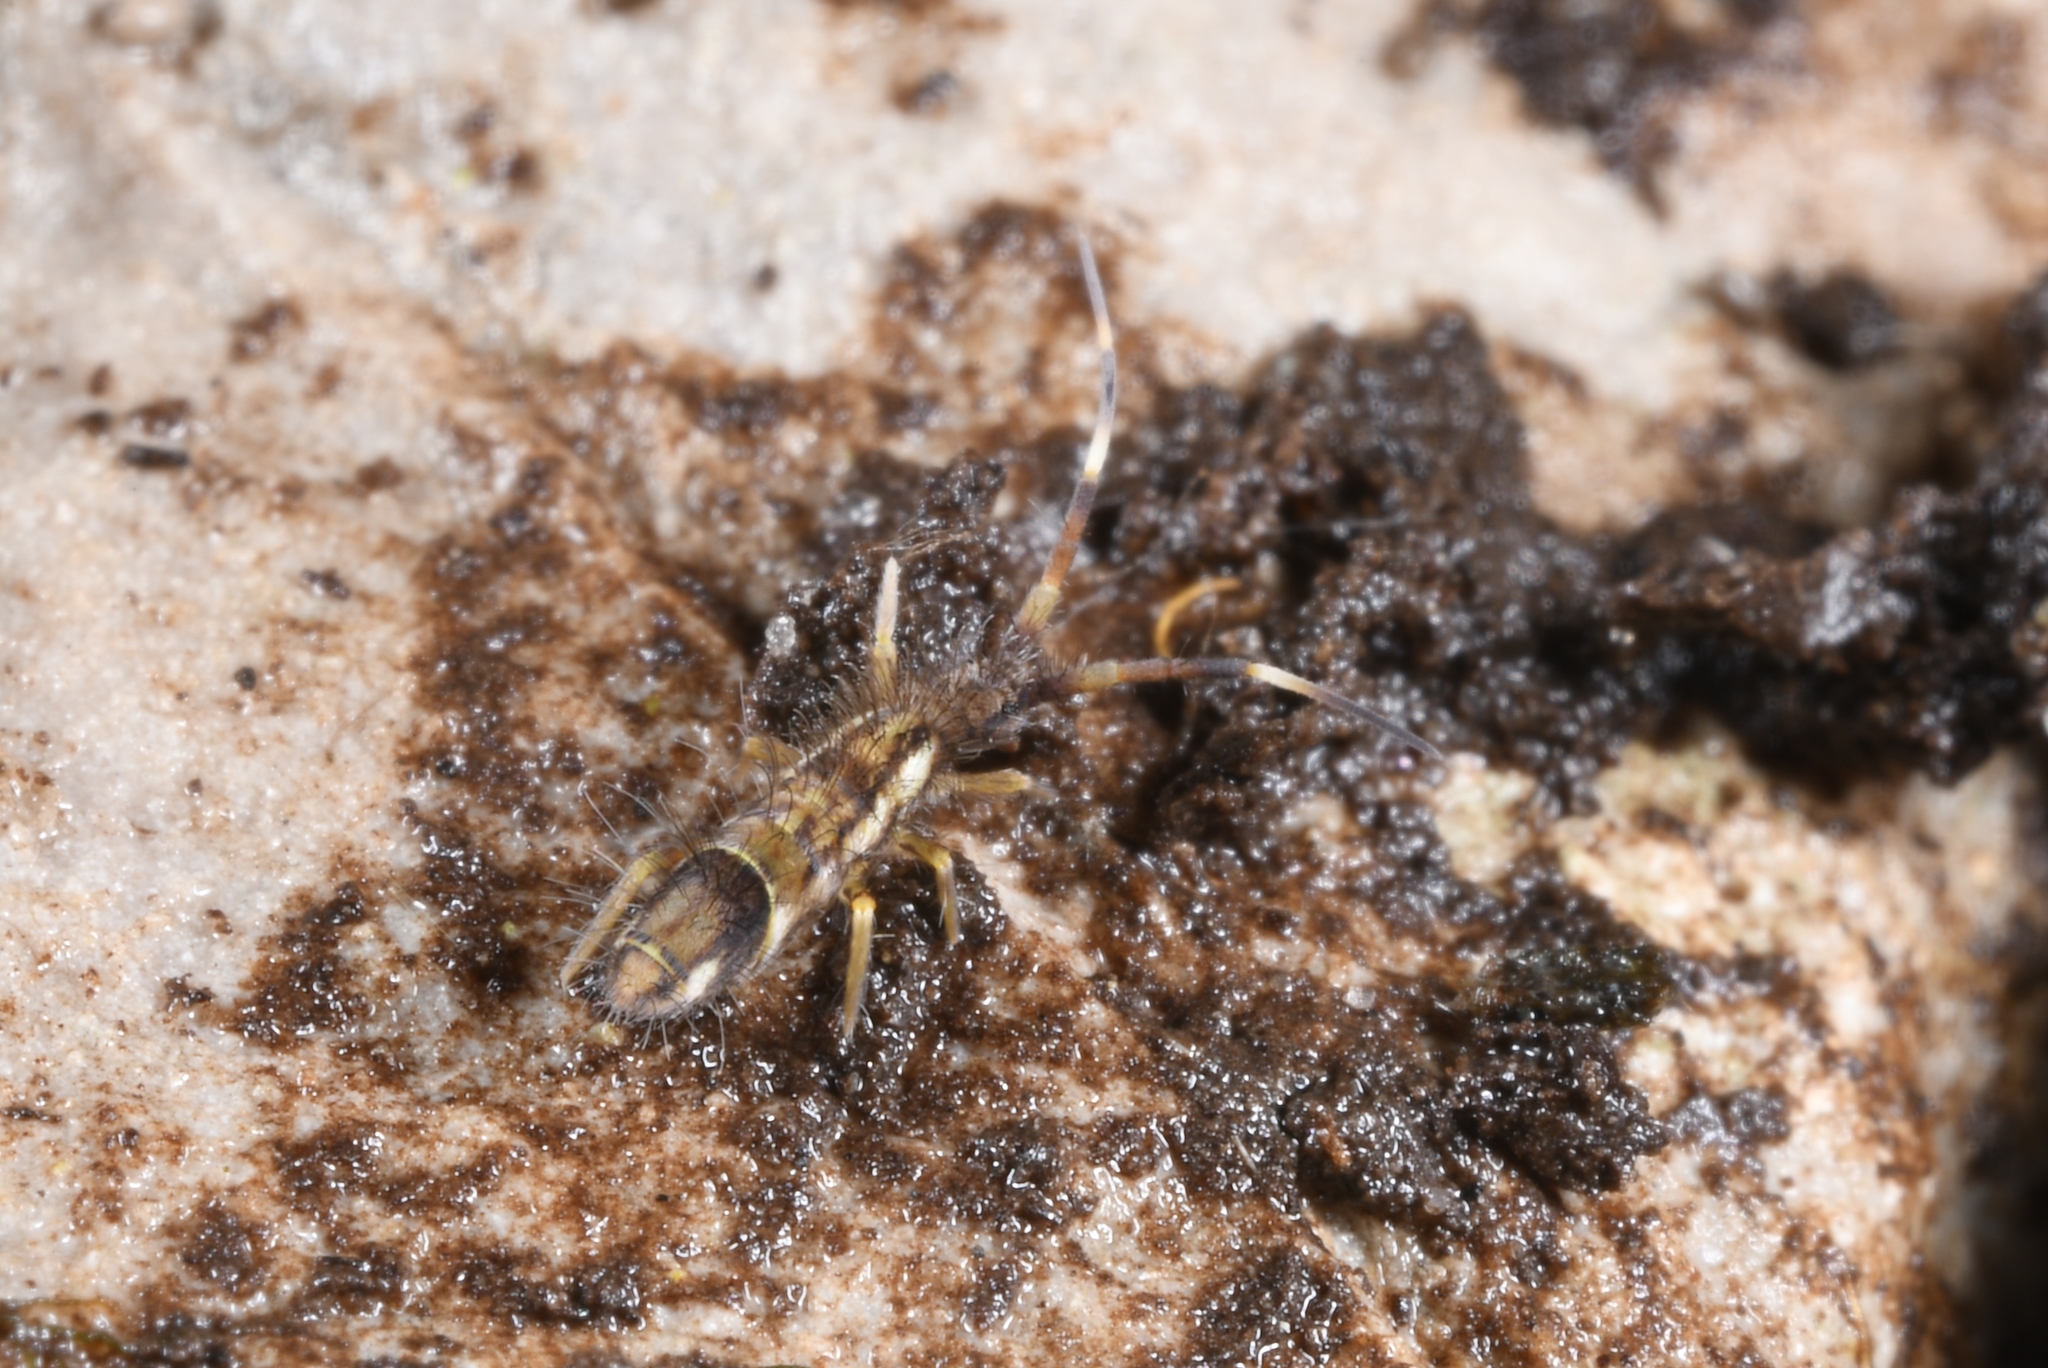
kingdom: Animalia
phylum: Arthropoda
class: Collembola
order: Entomobryomorpha
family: Entomobryidae
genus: Entomobrya
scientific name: Entomobrya nivalis
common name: Cosmopolitan springtail
